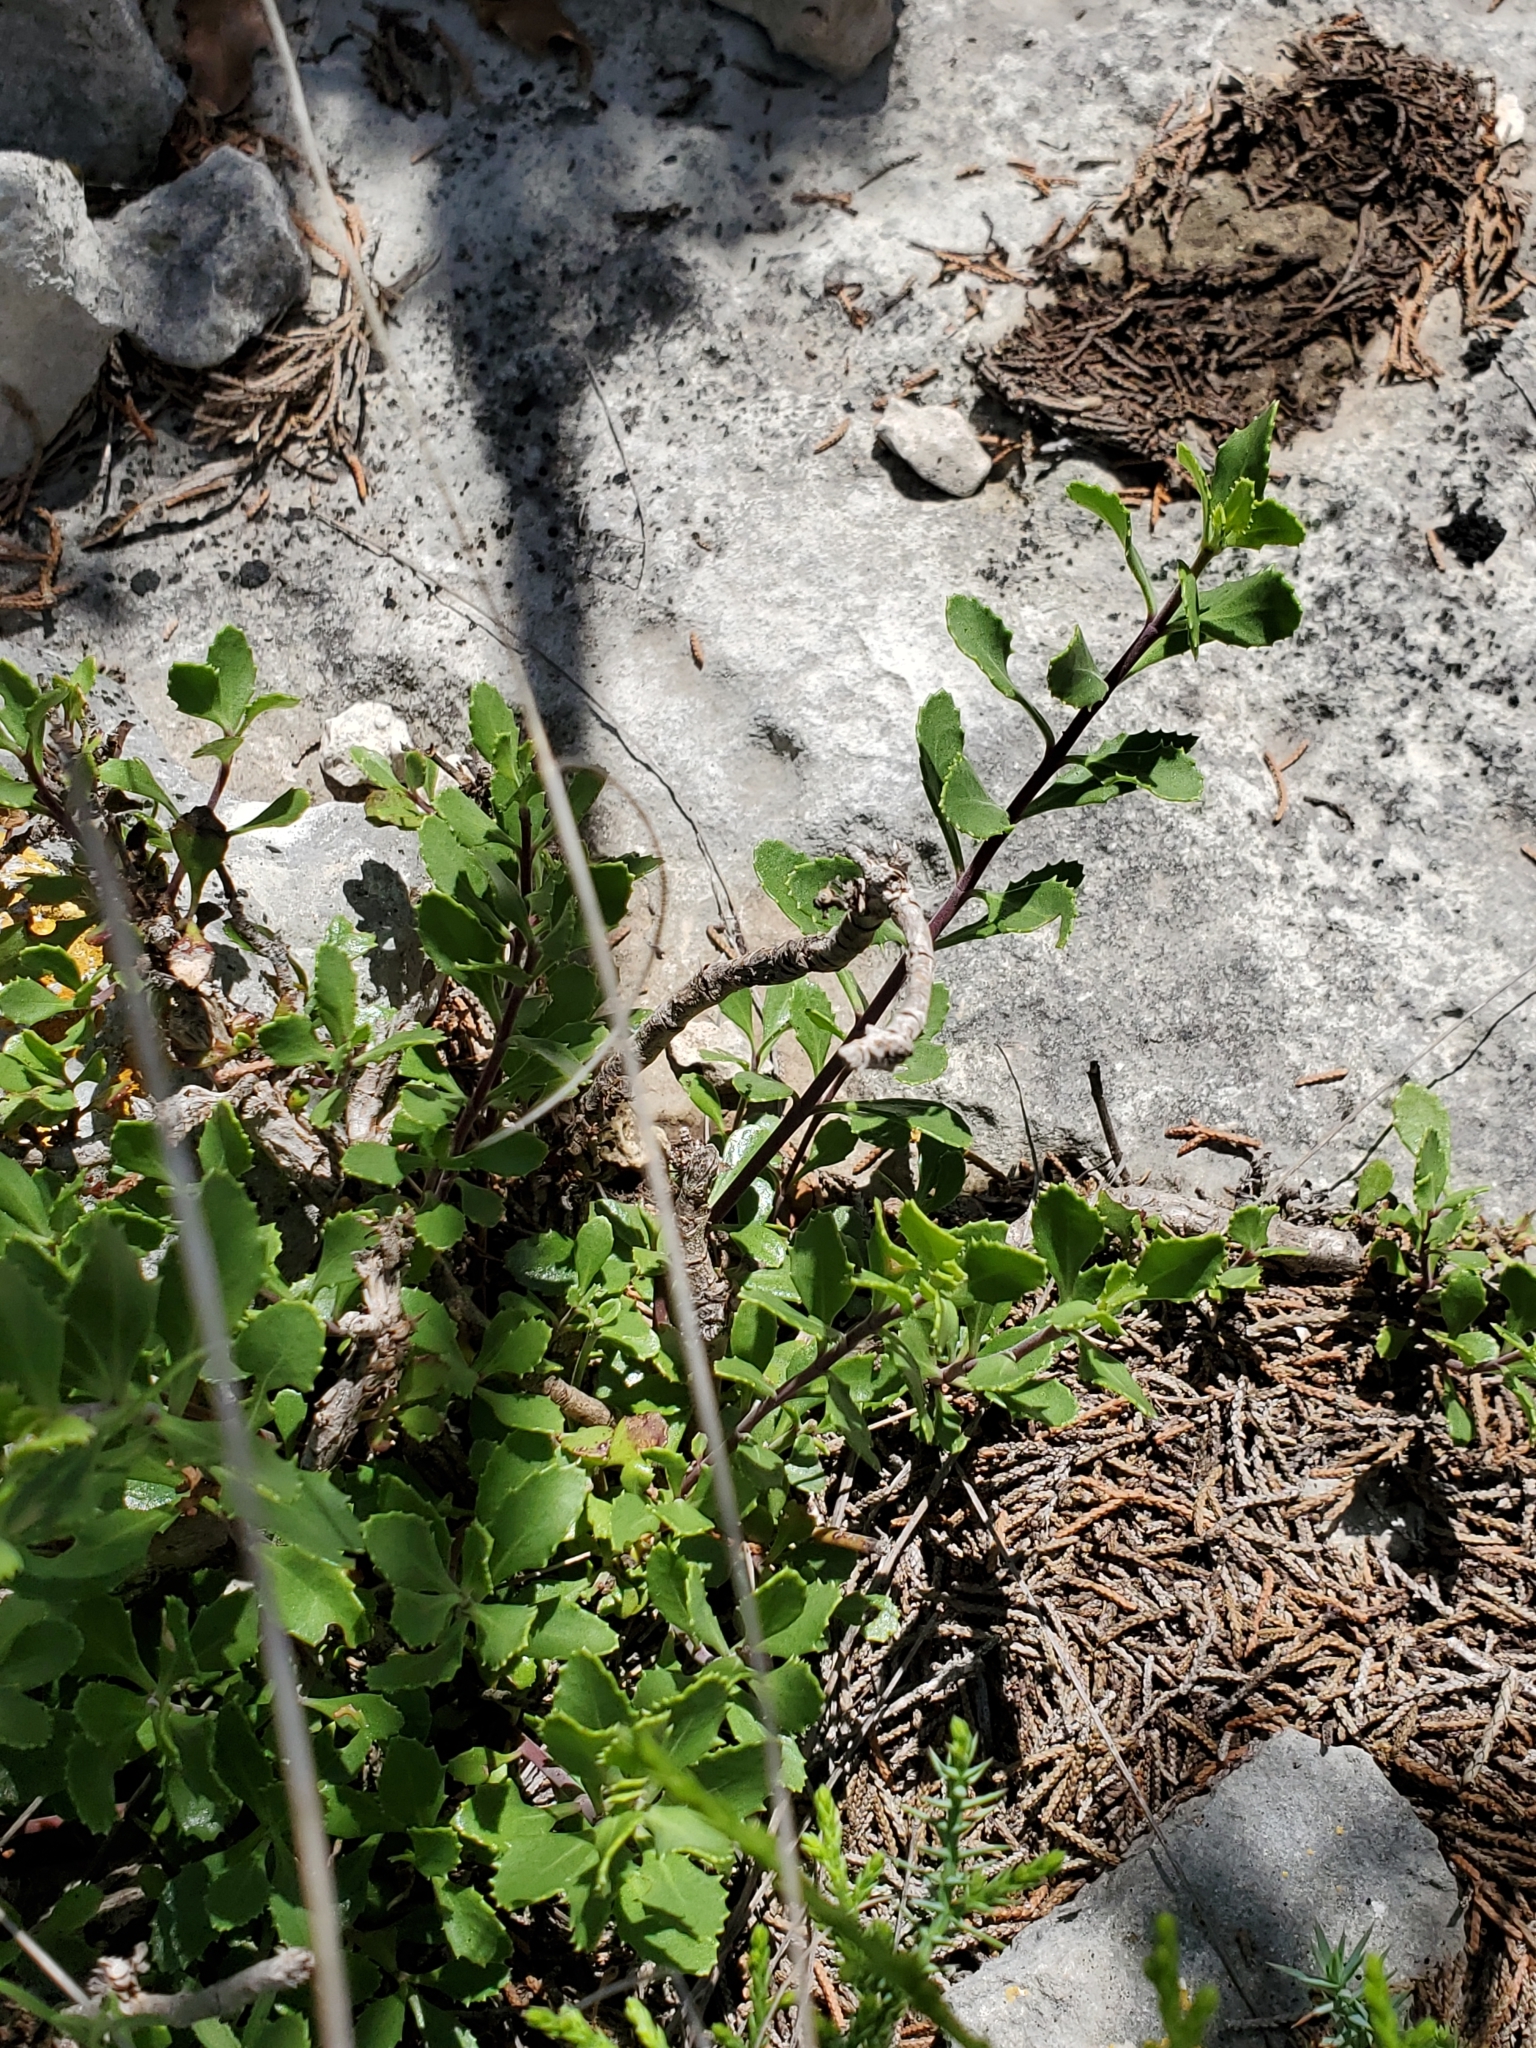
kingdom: Plantae
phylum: Tracheophyta
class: Magnoliopsida
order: Lamiales
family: Plantaginaceae
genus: Penstemon
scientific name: Penstemon baccharifolius
